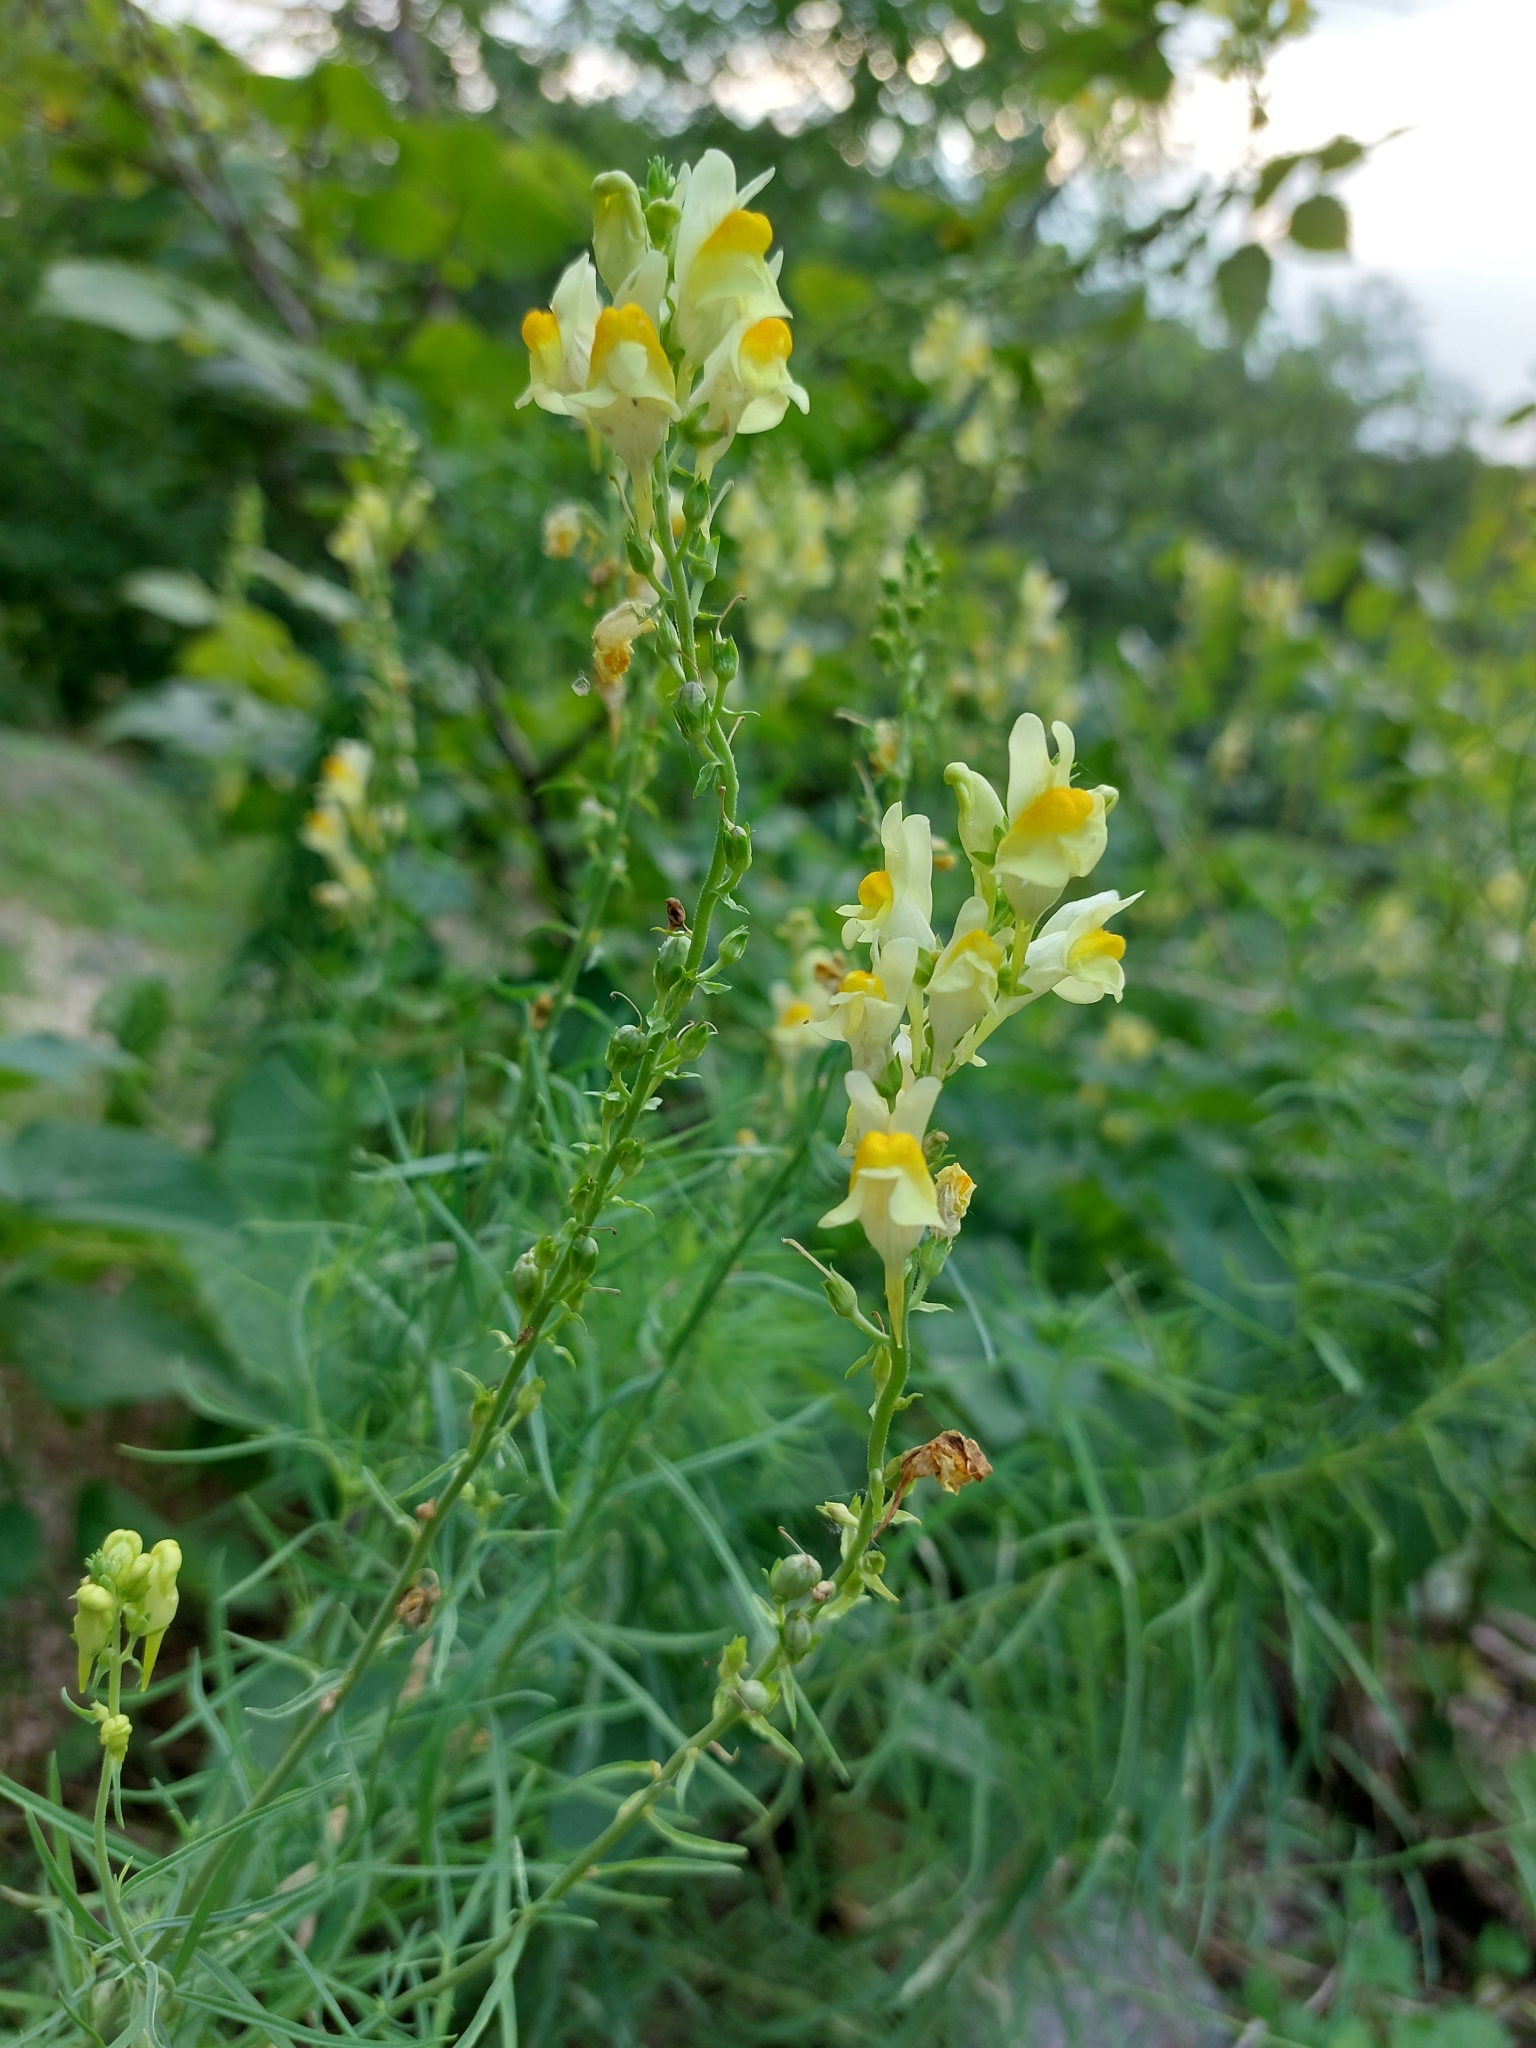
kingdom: Plantae
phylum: Tracheophyta
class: Magnoliopsida
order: Lamiales
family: Plantaginaceae
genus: Linaria
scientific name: Linaria vulgaris
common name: Butter and eggs
